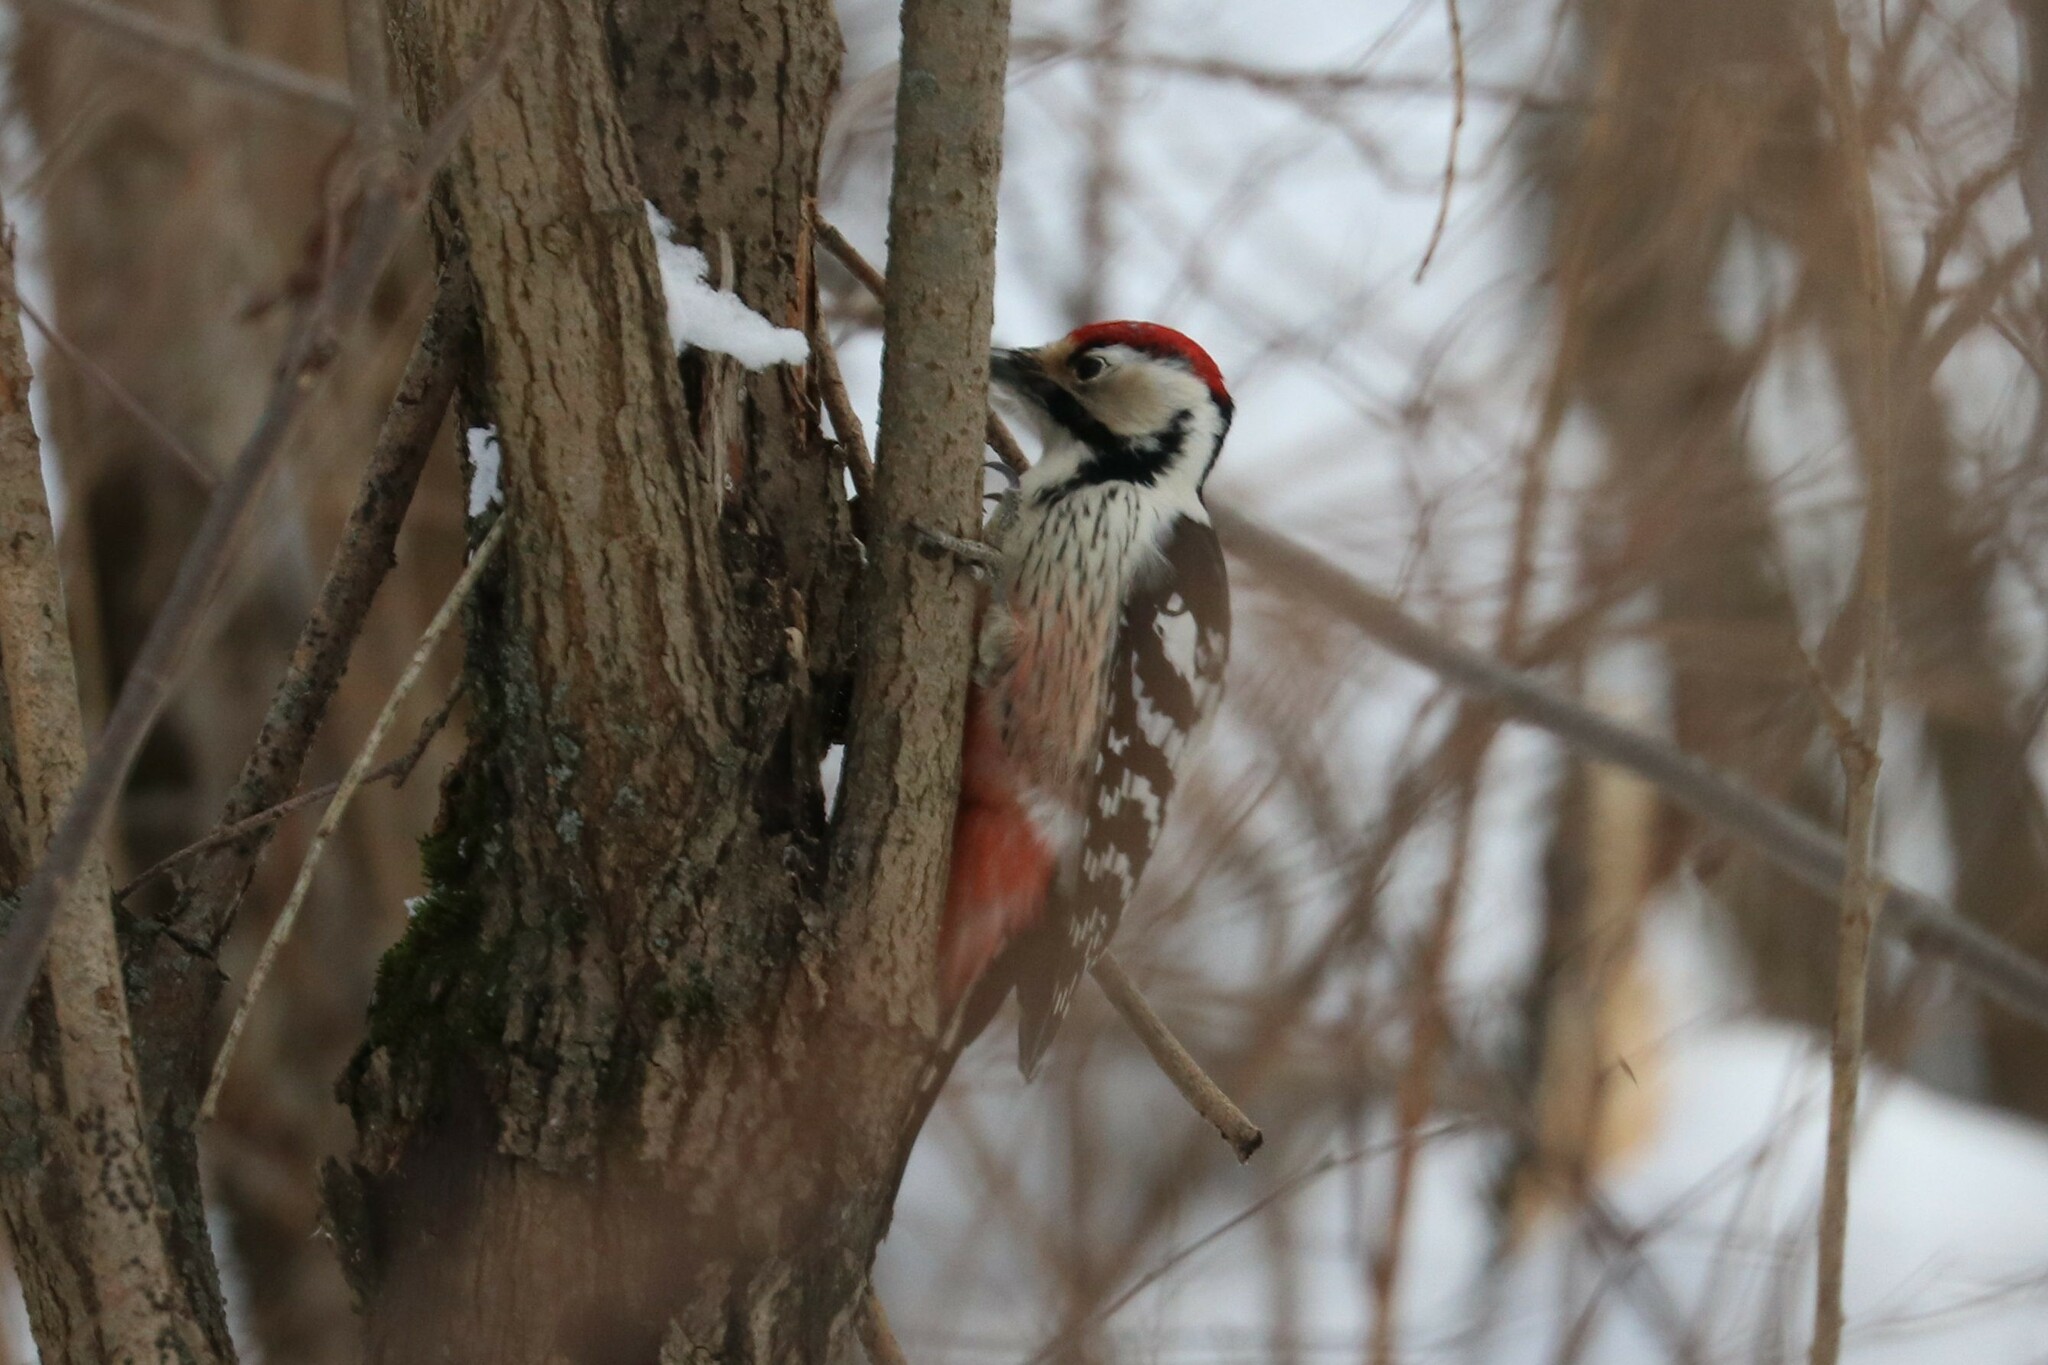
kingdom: Animalia
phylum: Chordata
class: Aves
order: Piciformes
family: Picidae
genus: Dendrocopos
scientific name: Dendrocopos leucotos
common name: White-backed woodpecker
